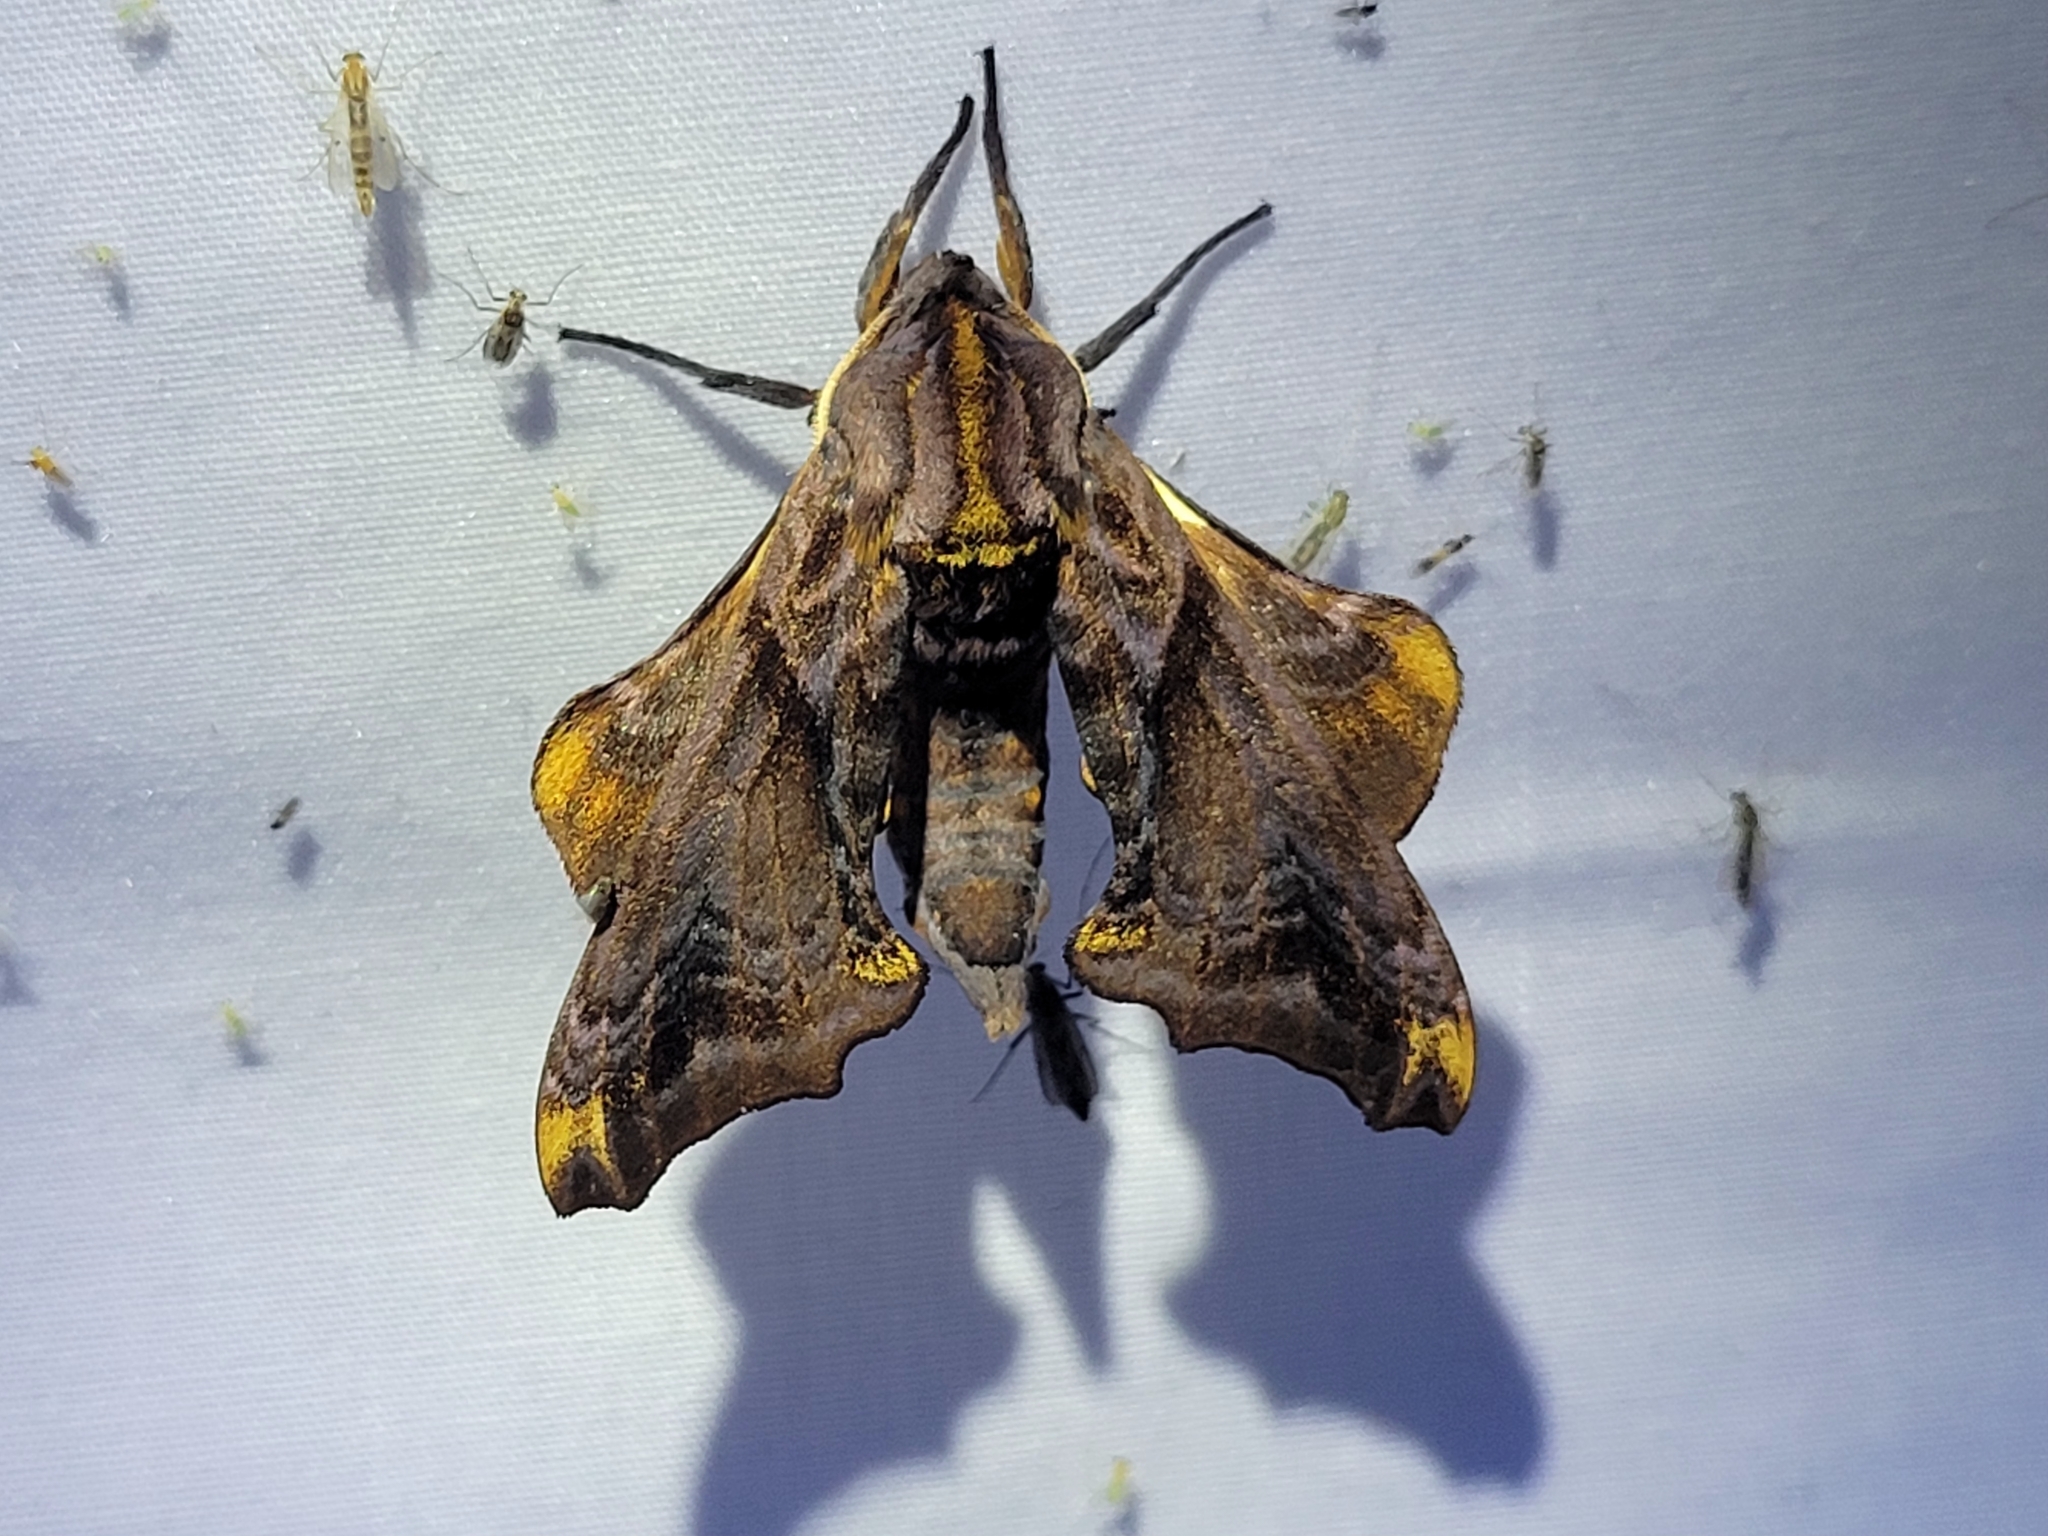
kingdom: Animalia
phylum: Arthropoda
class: Insecta
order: Lepidoptera
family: Sphingidae
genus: Paonias
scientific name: Paonias myops
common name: Small-eyed sphinx
